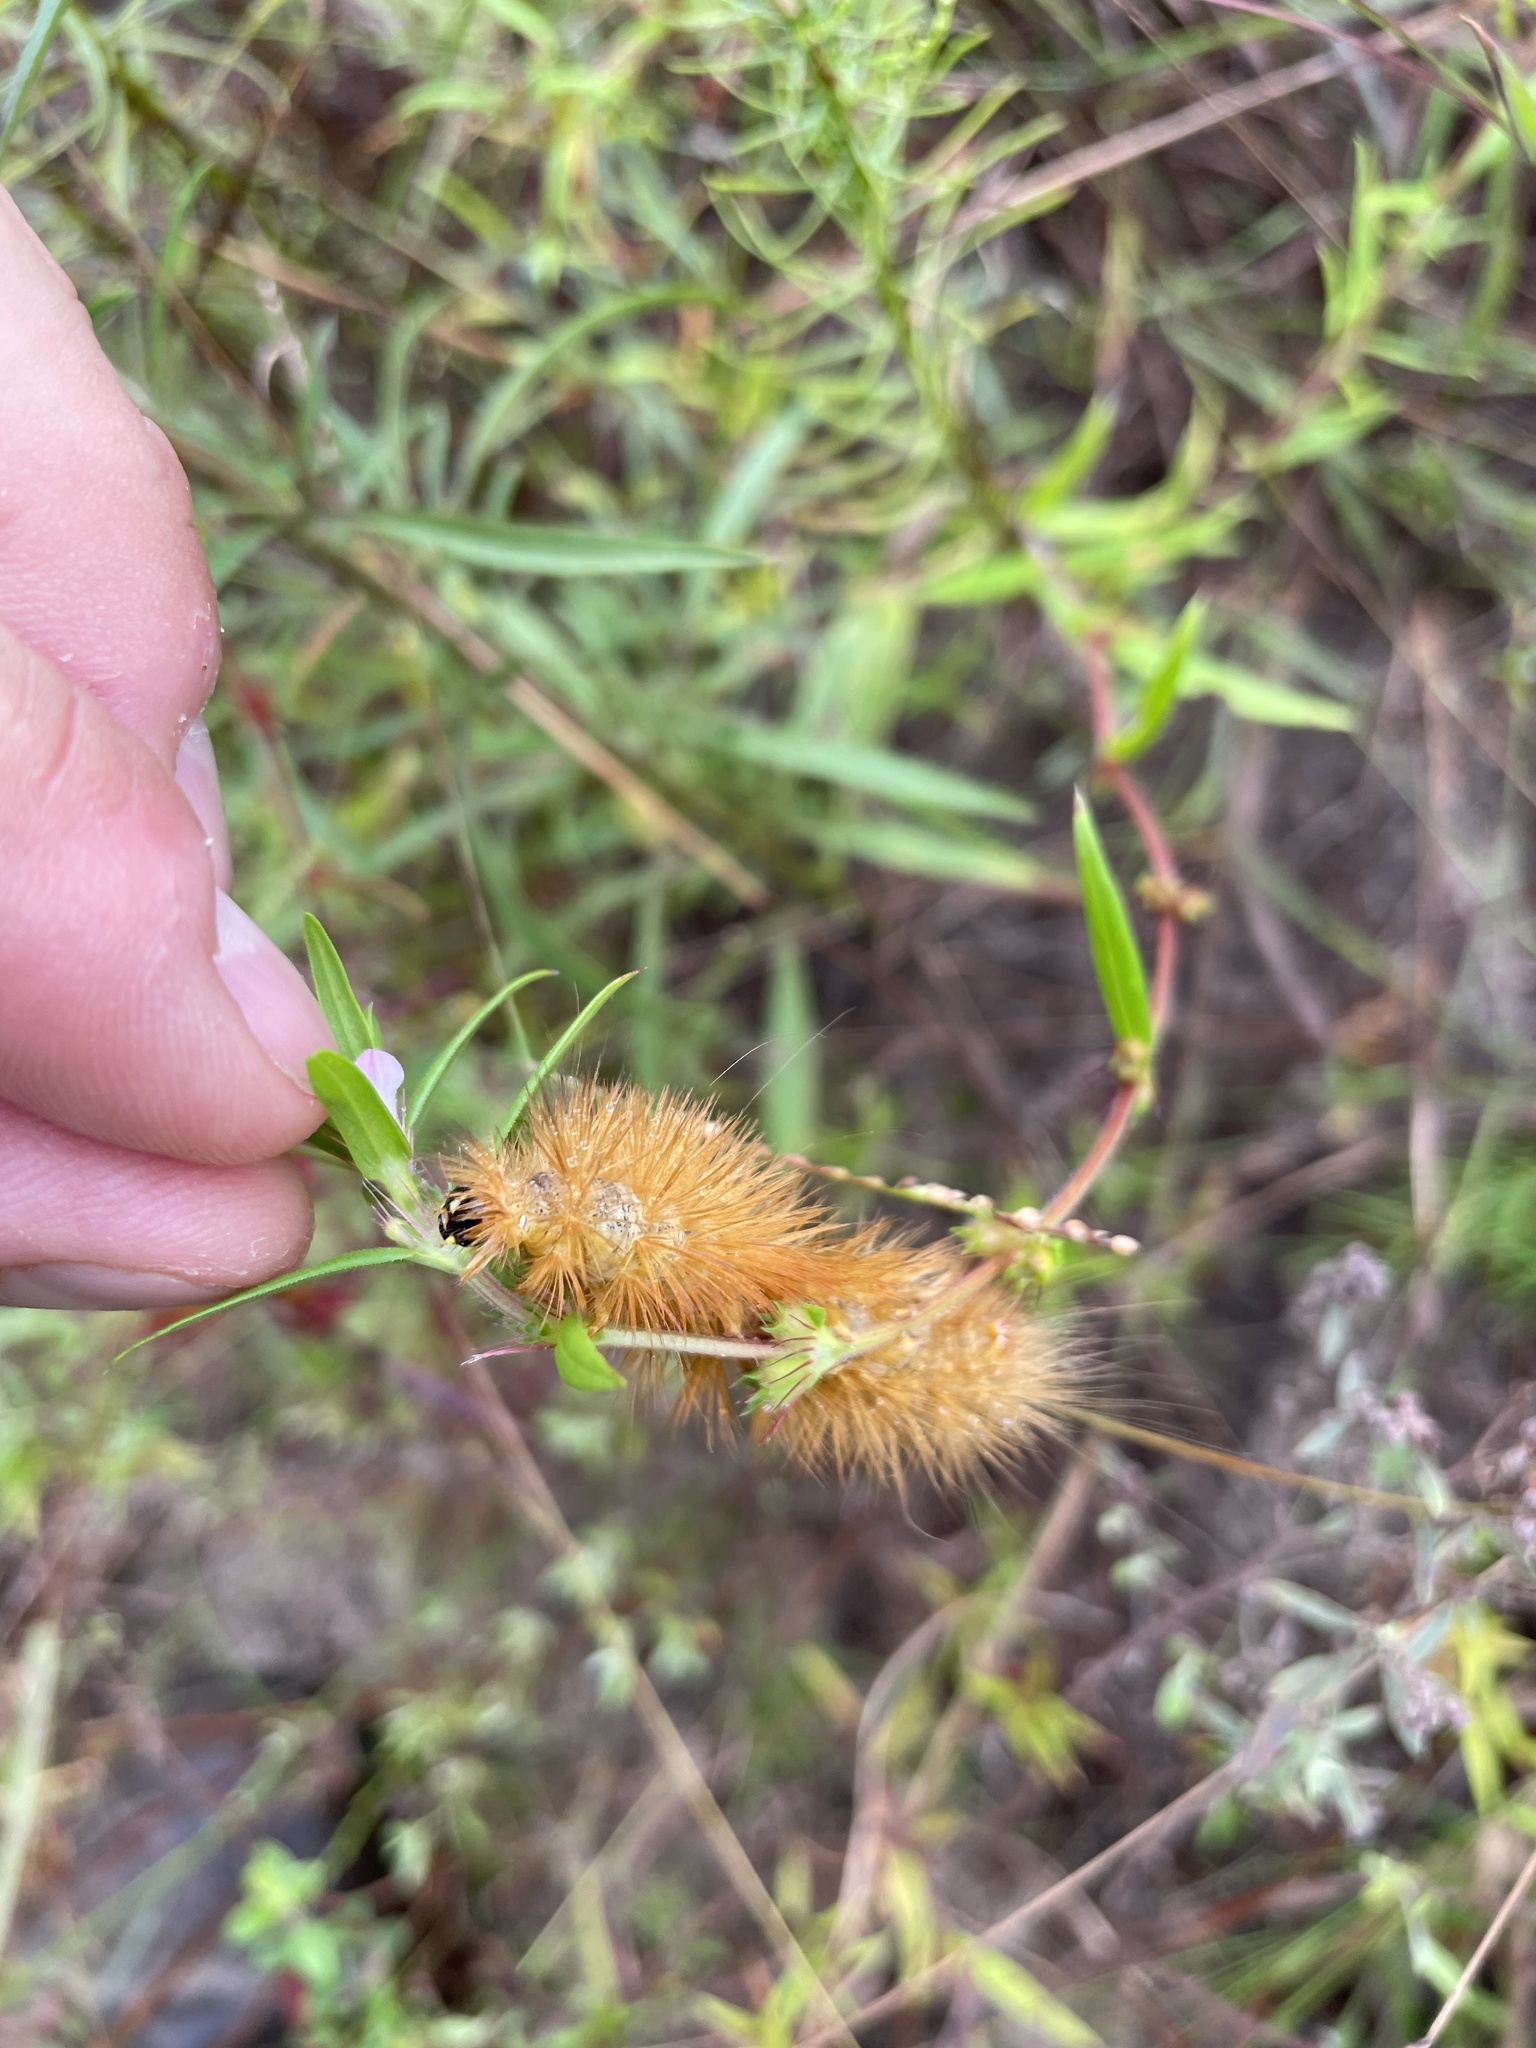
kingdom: Animalia
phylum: Arthropoda
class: Insecta
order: Lepidoptera
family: Erebidae
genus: Estigmene
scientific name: Estigmene acrea
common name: Salt marsh moth
